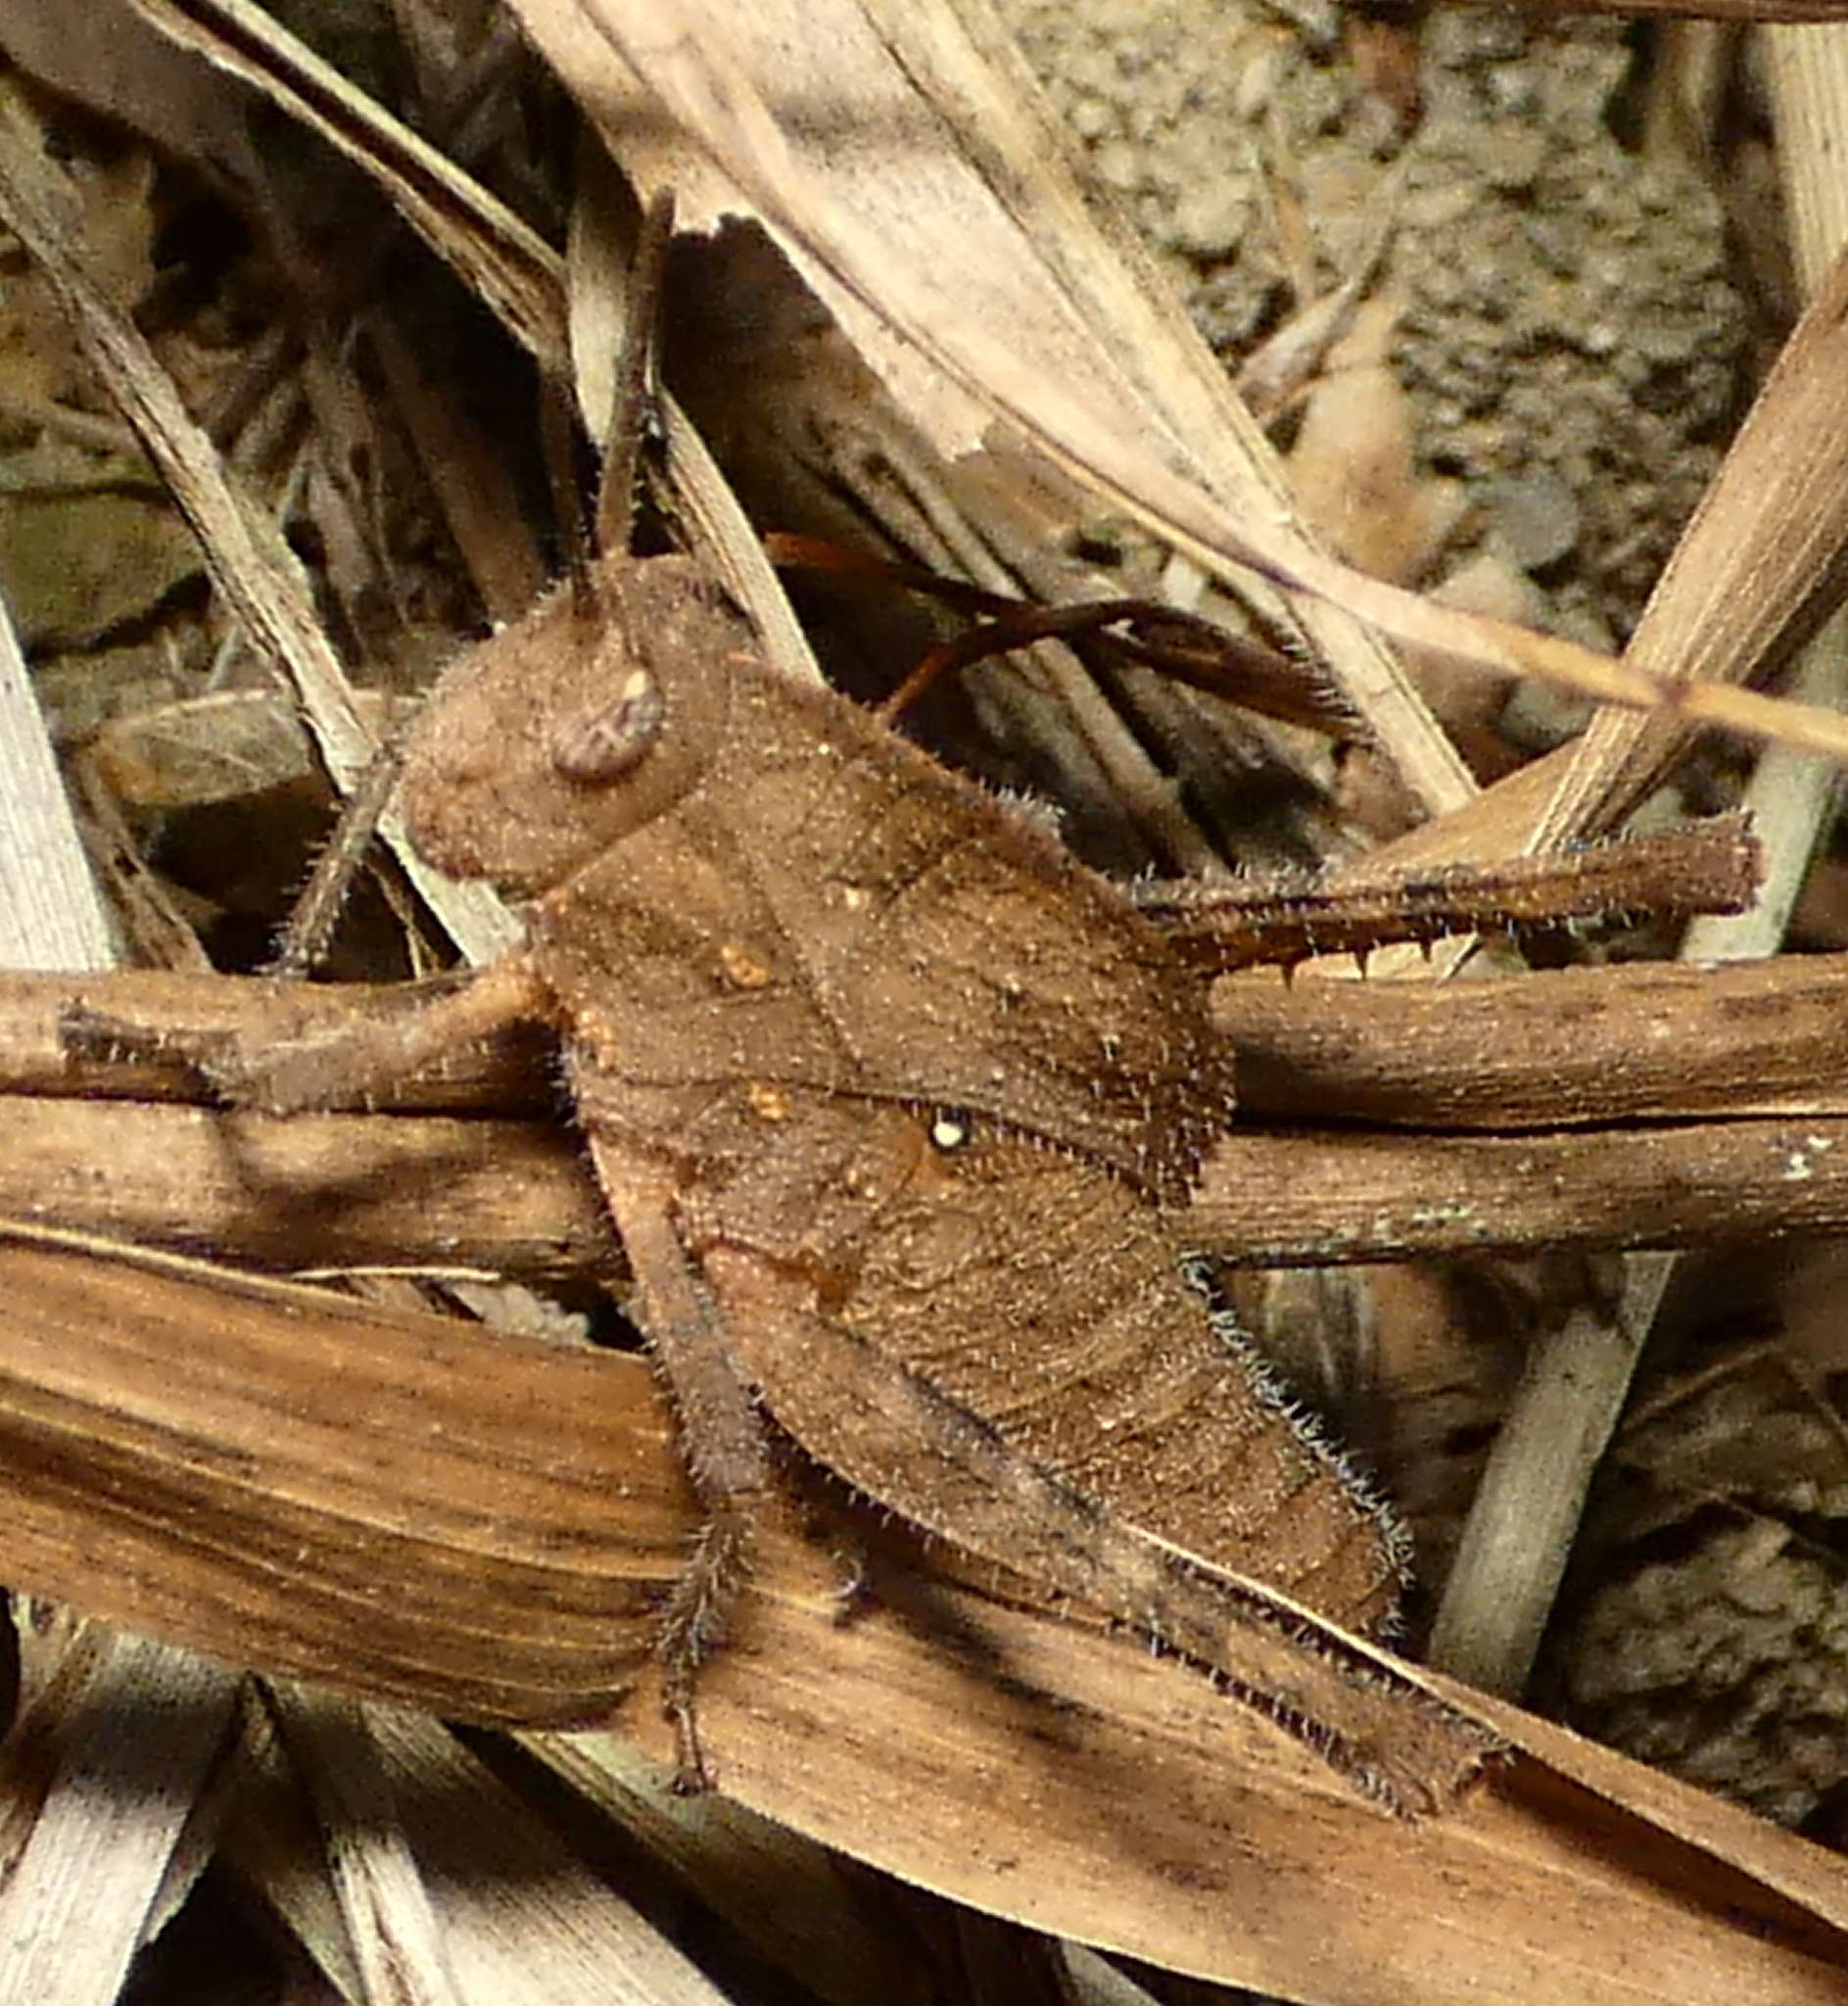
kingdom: Animalia
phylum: Arthropoda
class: Insecta
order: Orthoptera
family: Romaleidae
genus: Xyleus
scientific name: Xyleus discoideus
